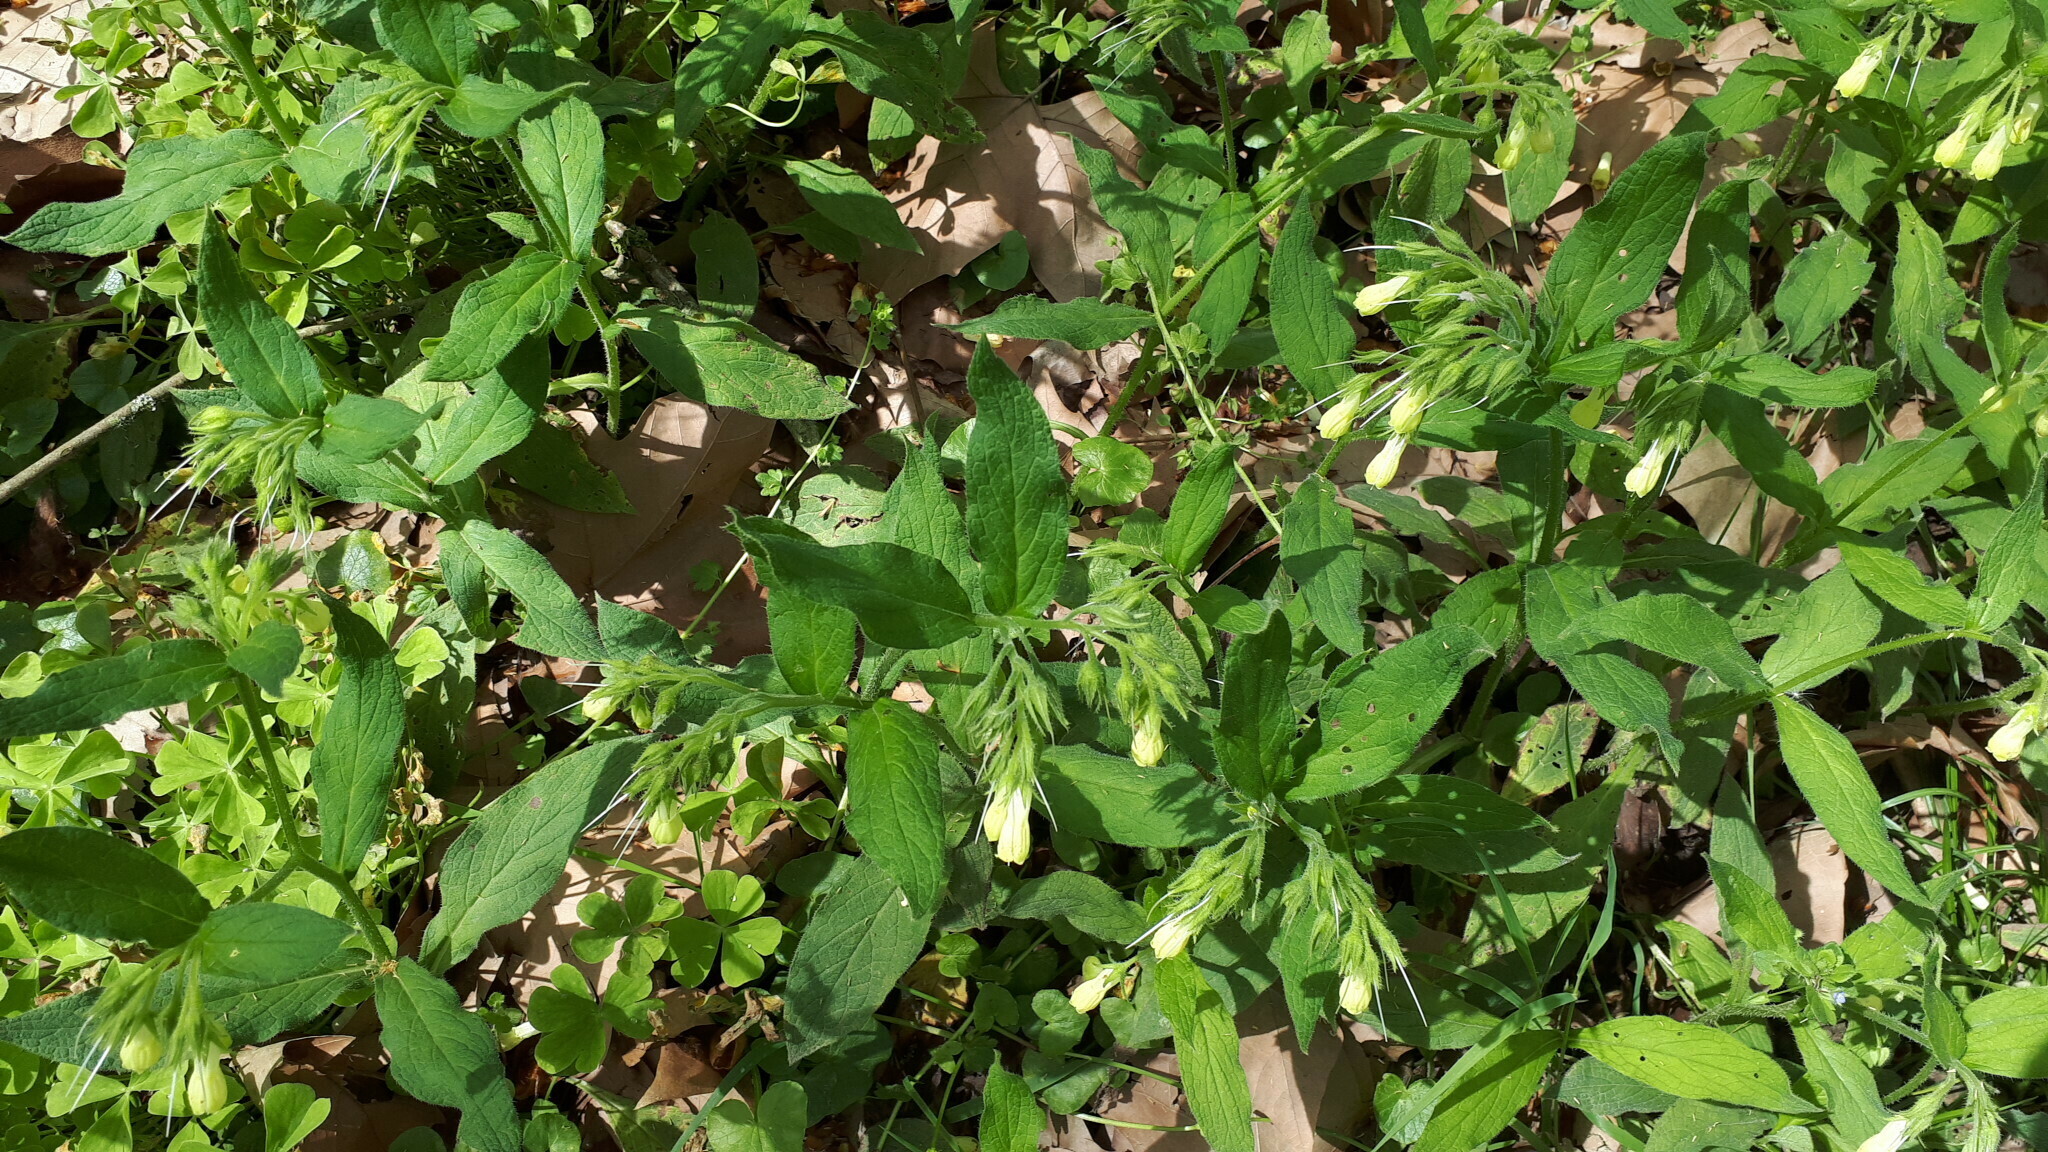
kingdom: Plantae
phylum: Tracheophyta
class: Magnoliopsida
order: Boraginales
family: Boraginaceae
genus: Symphytum
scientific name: Symphytum tuberosum
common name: Tuberous comfrey
